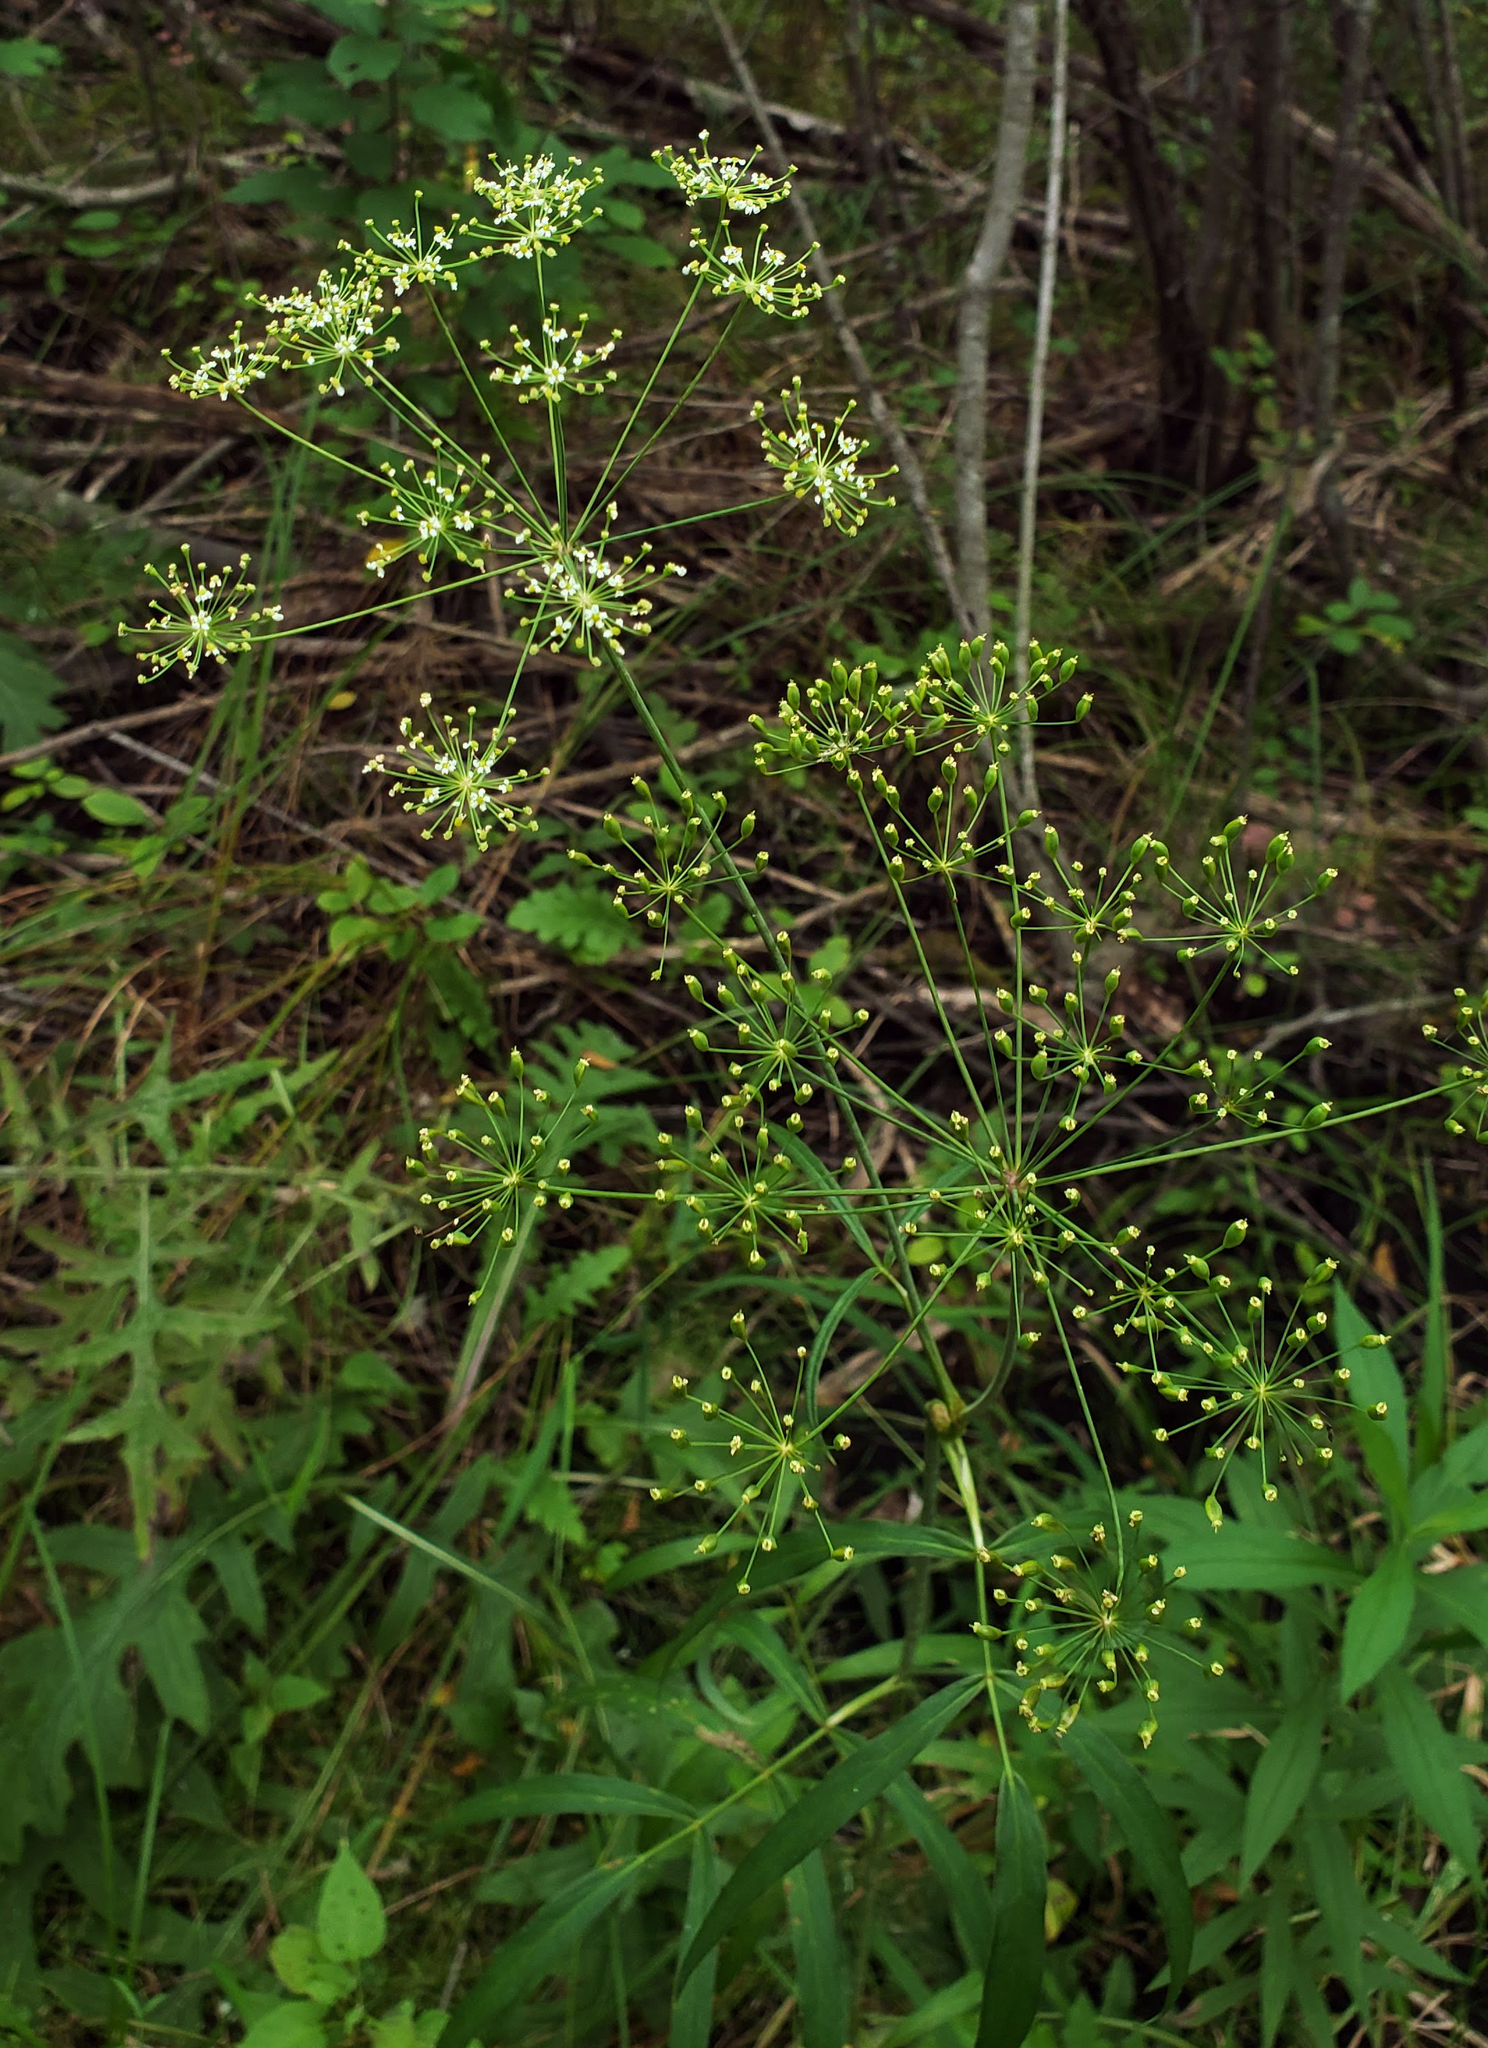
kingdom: Plantae
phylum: Tracheophyta
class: Magnoliopsida
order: Apiales
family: Apiaceae
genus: Oxypolis
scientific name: Oxypolis rigidior
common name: Cowbane
